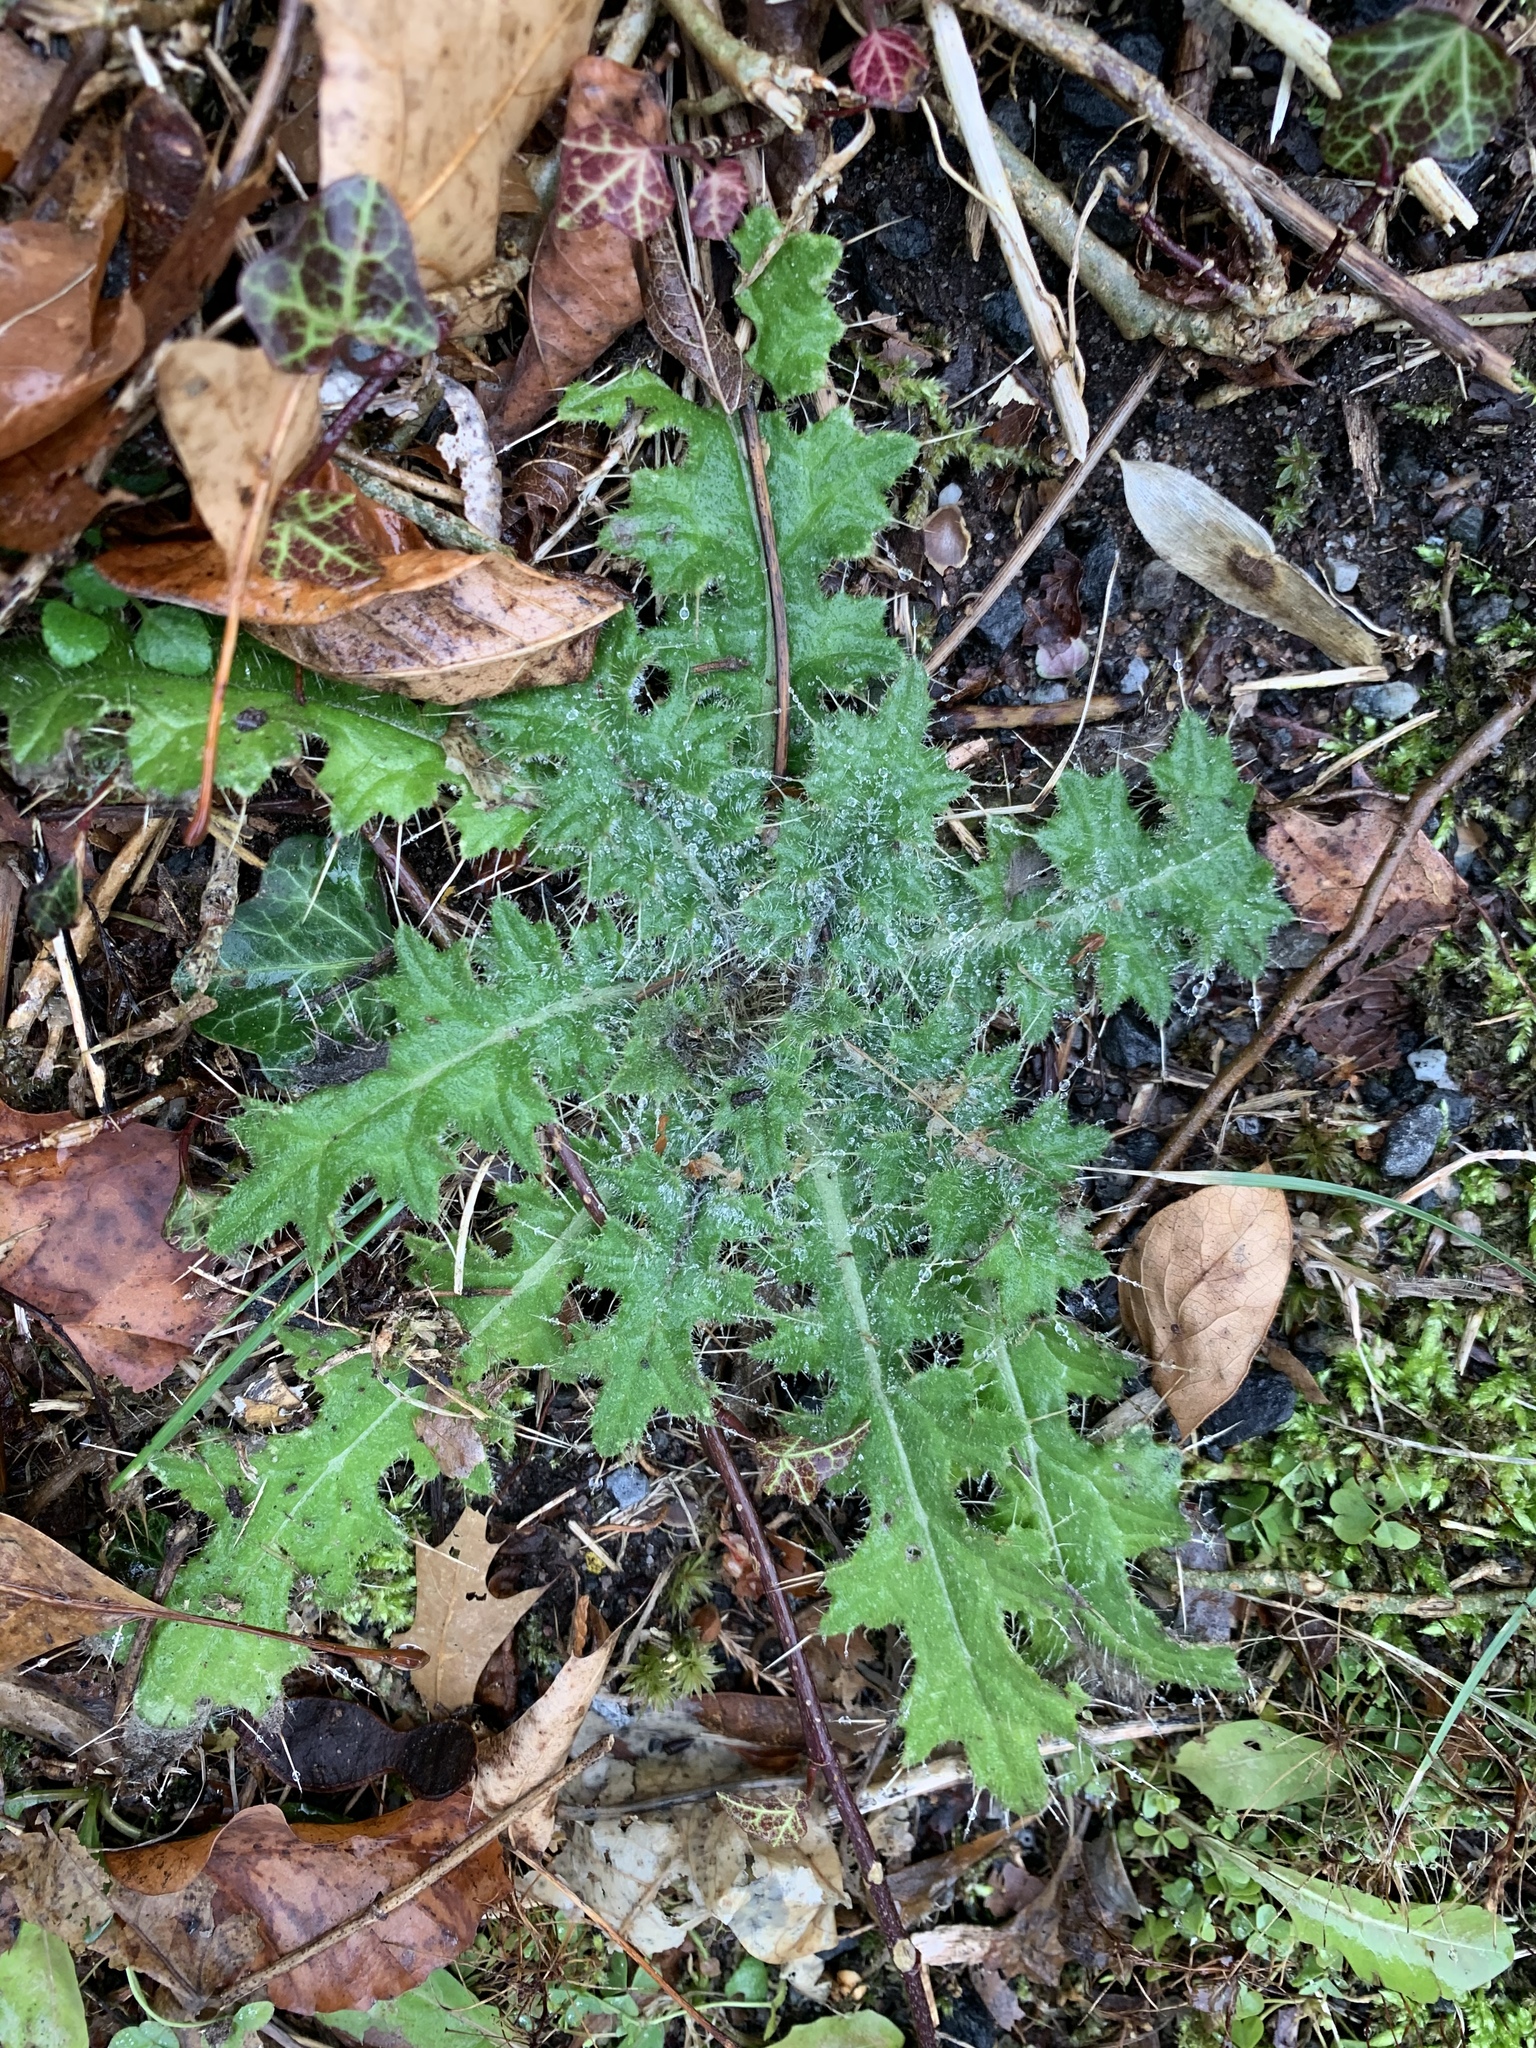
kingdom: Plantae
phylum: Tracheophyta
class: Magnoliopsida
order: Asterales
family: Asteraceae
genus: Cirsium
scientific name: Cirsium vulgare
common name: Bull thistle
